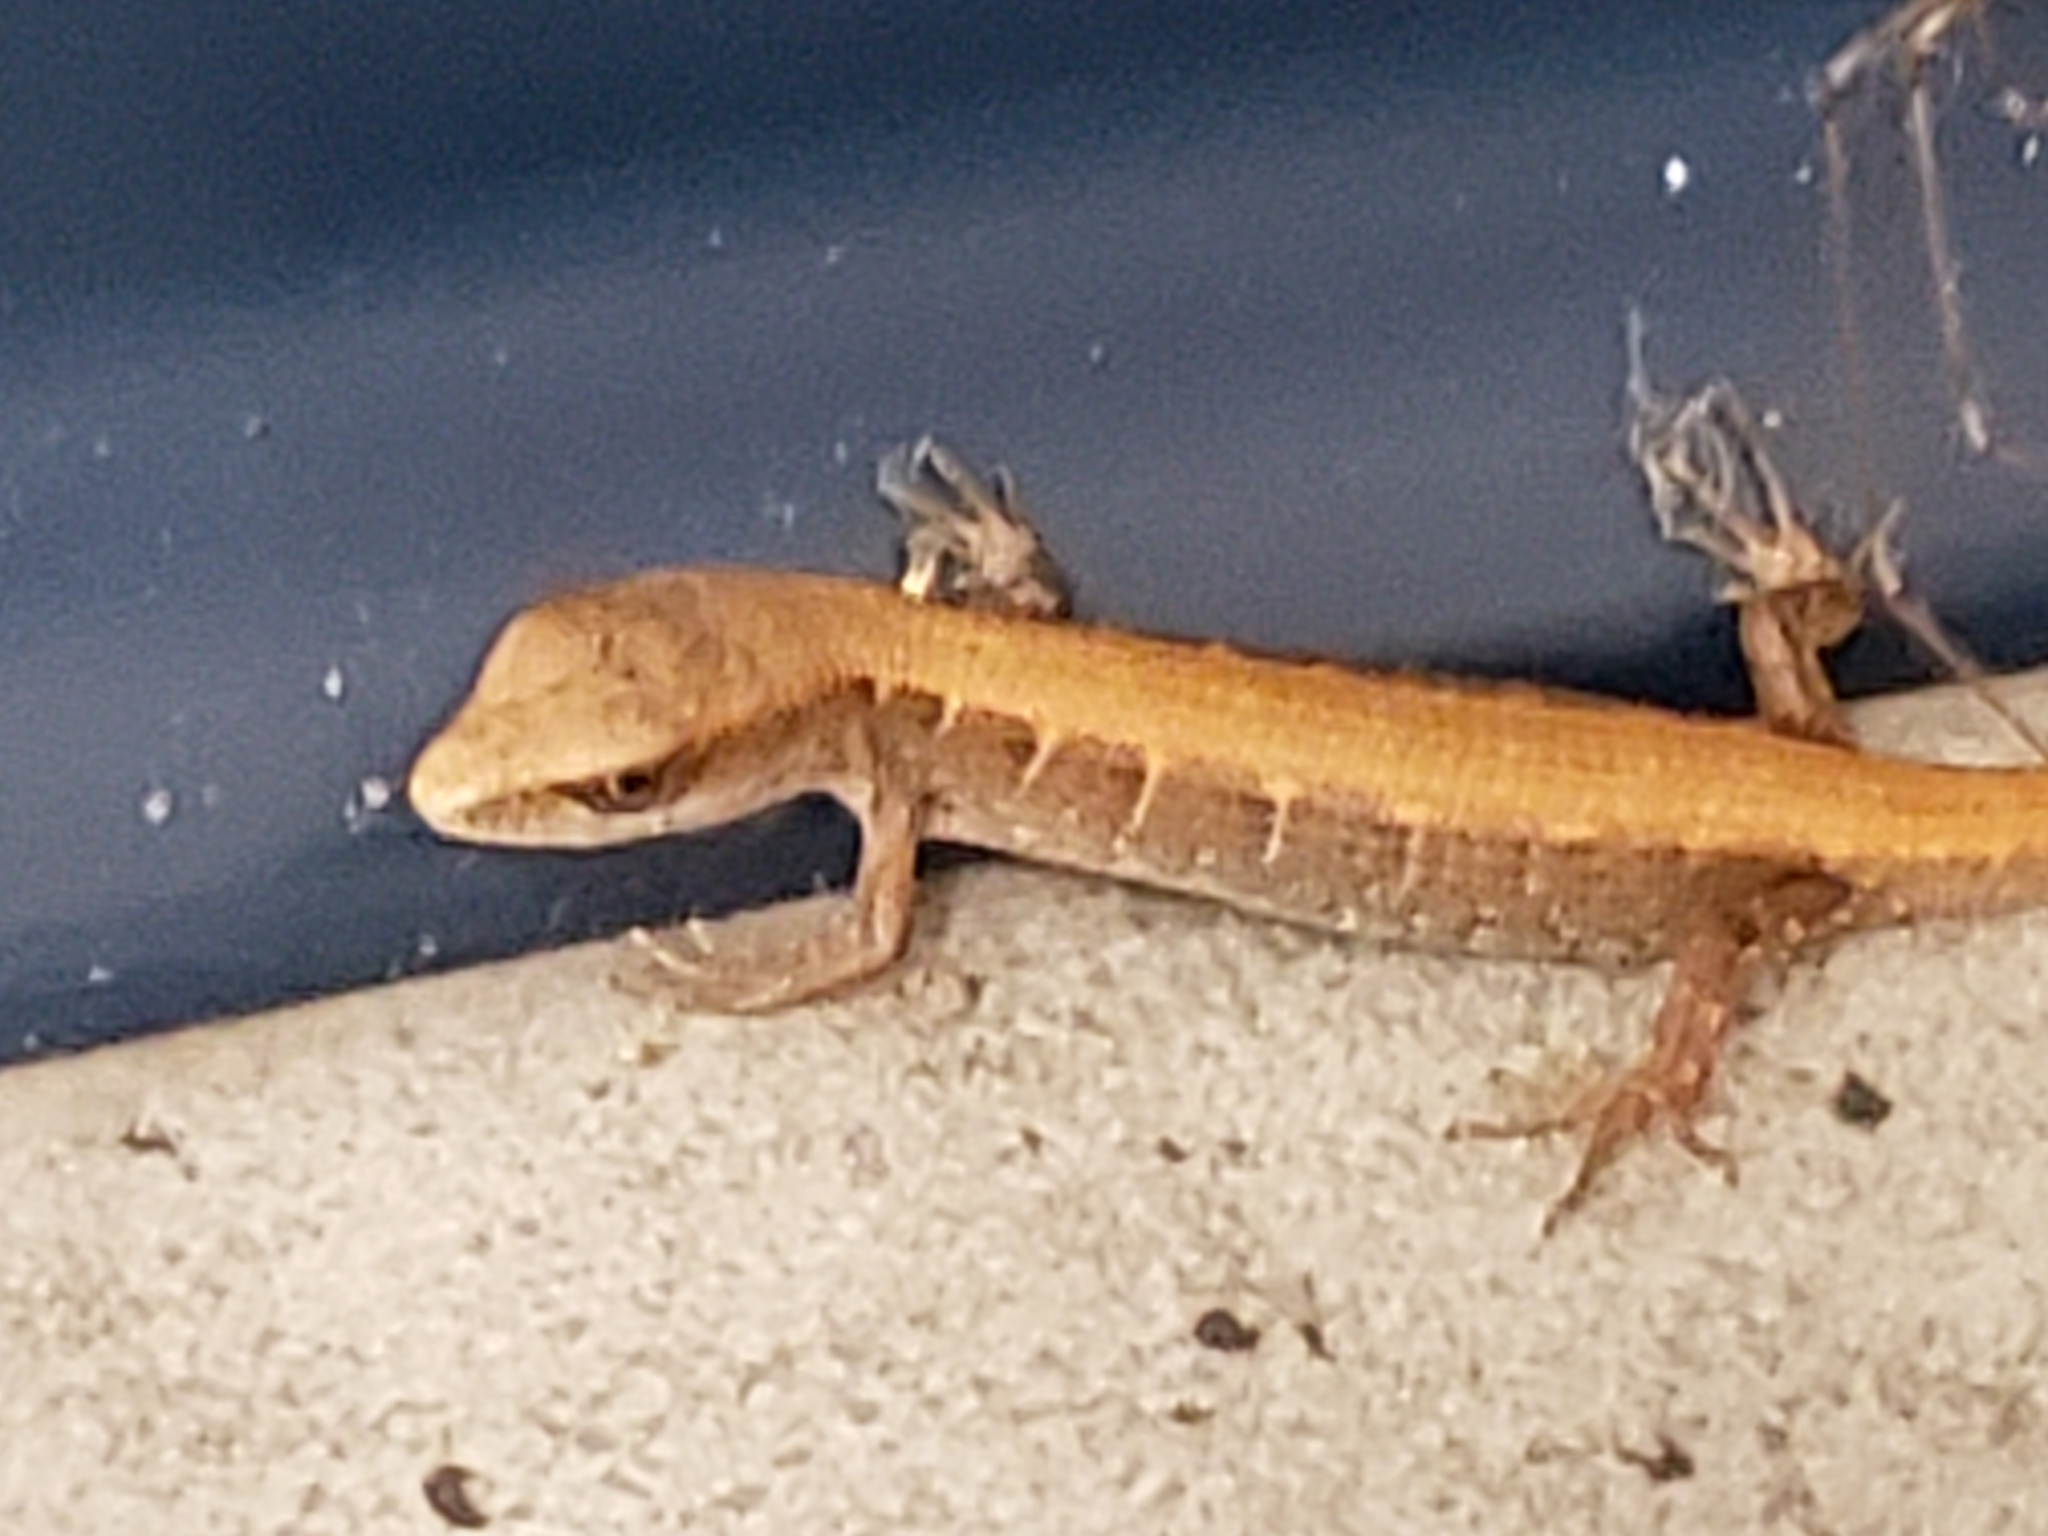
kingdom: Animalia
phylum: Chordata
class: Squamata
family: Anguidae
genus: Elgaria
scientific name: Elgaria multicarinata
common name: Southern alligator lizard
